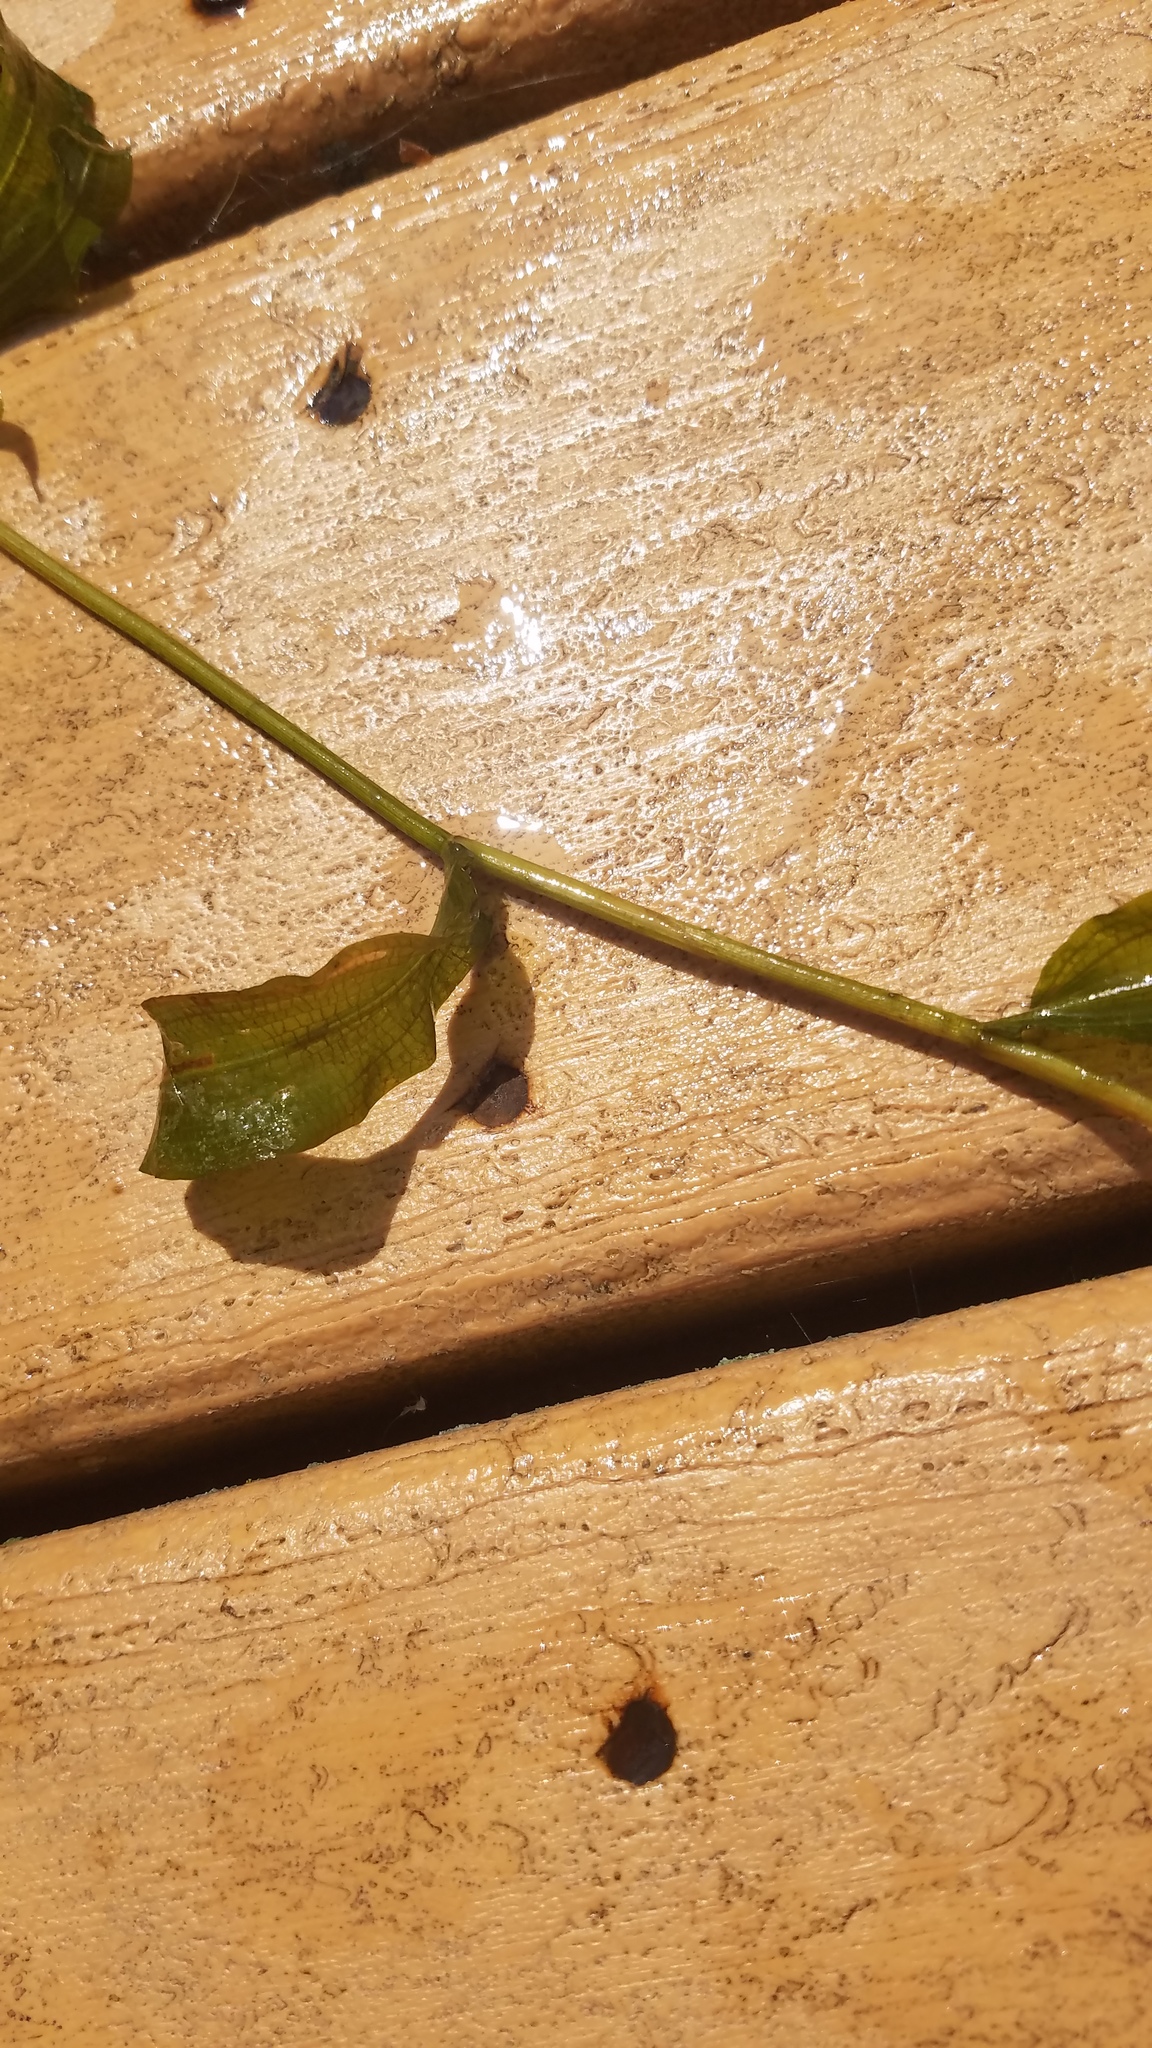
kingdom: Plantae
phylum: Tracheophyta
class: Liliopsida
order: Alismatales
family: Potamogetonaceae
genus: Potamogeton
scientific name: Potamogeton illinoensis
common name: Illinois pondweed
